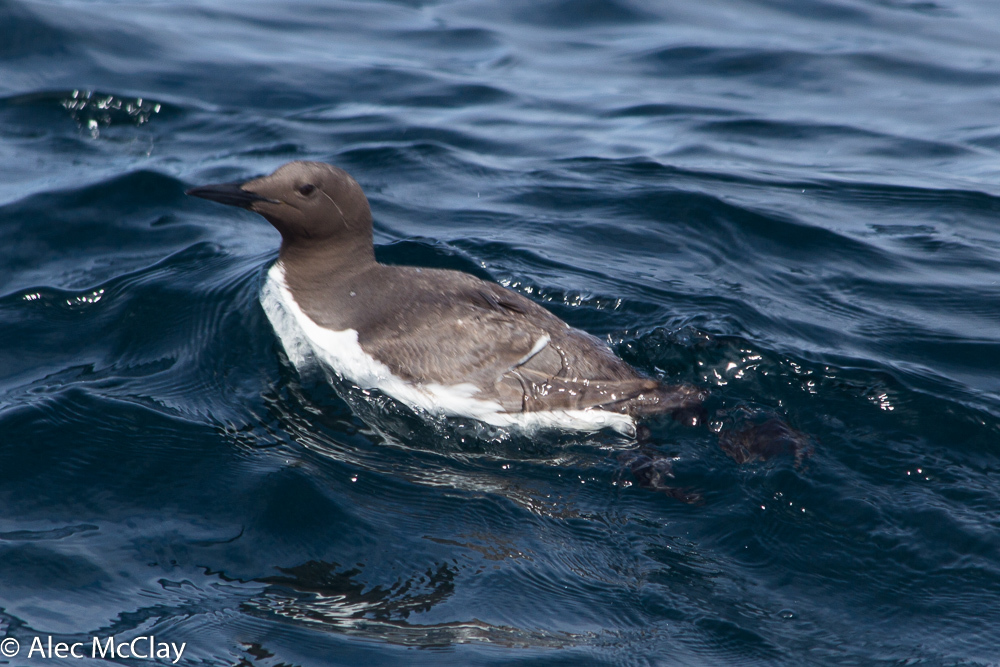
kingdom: Animalia
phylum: Chordata
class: Aves
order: Charadriiformes
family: Alcidae
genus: Uria
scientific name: Uria aalge
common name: Common murre
